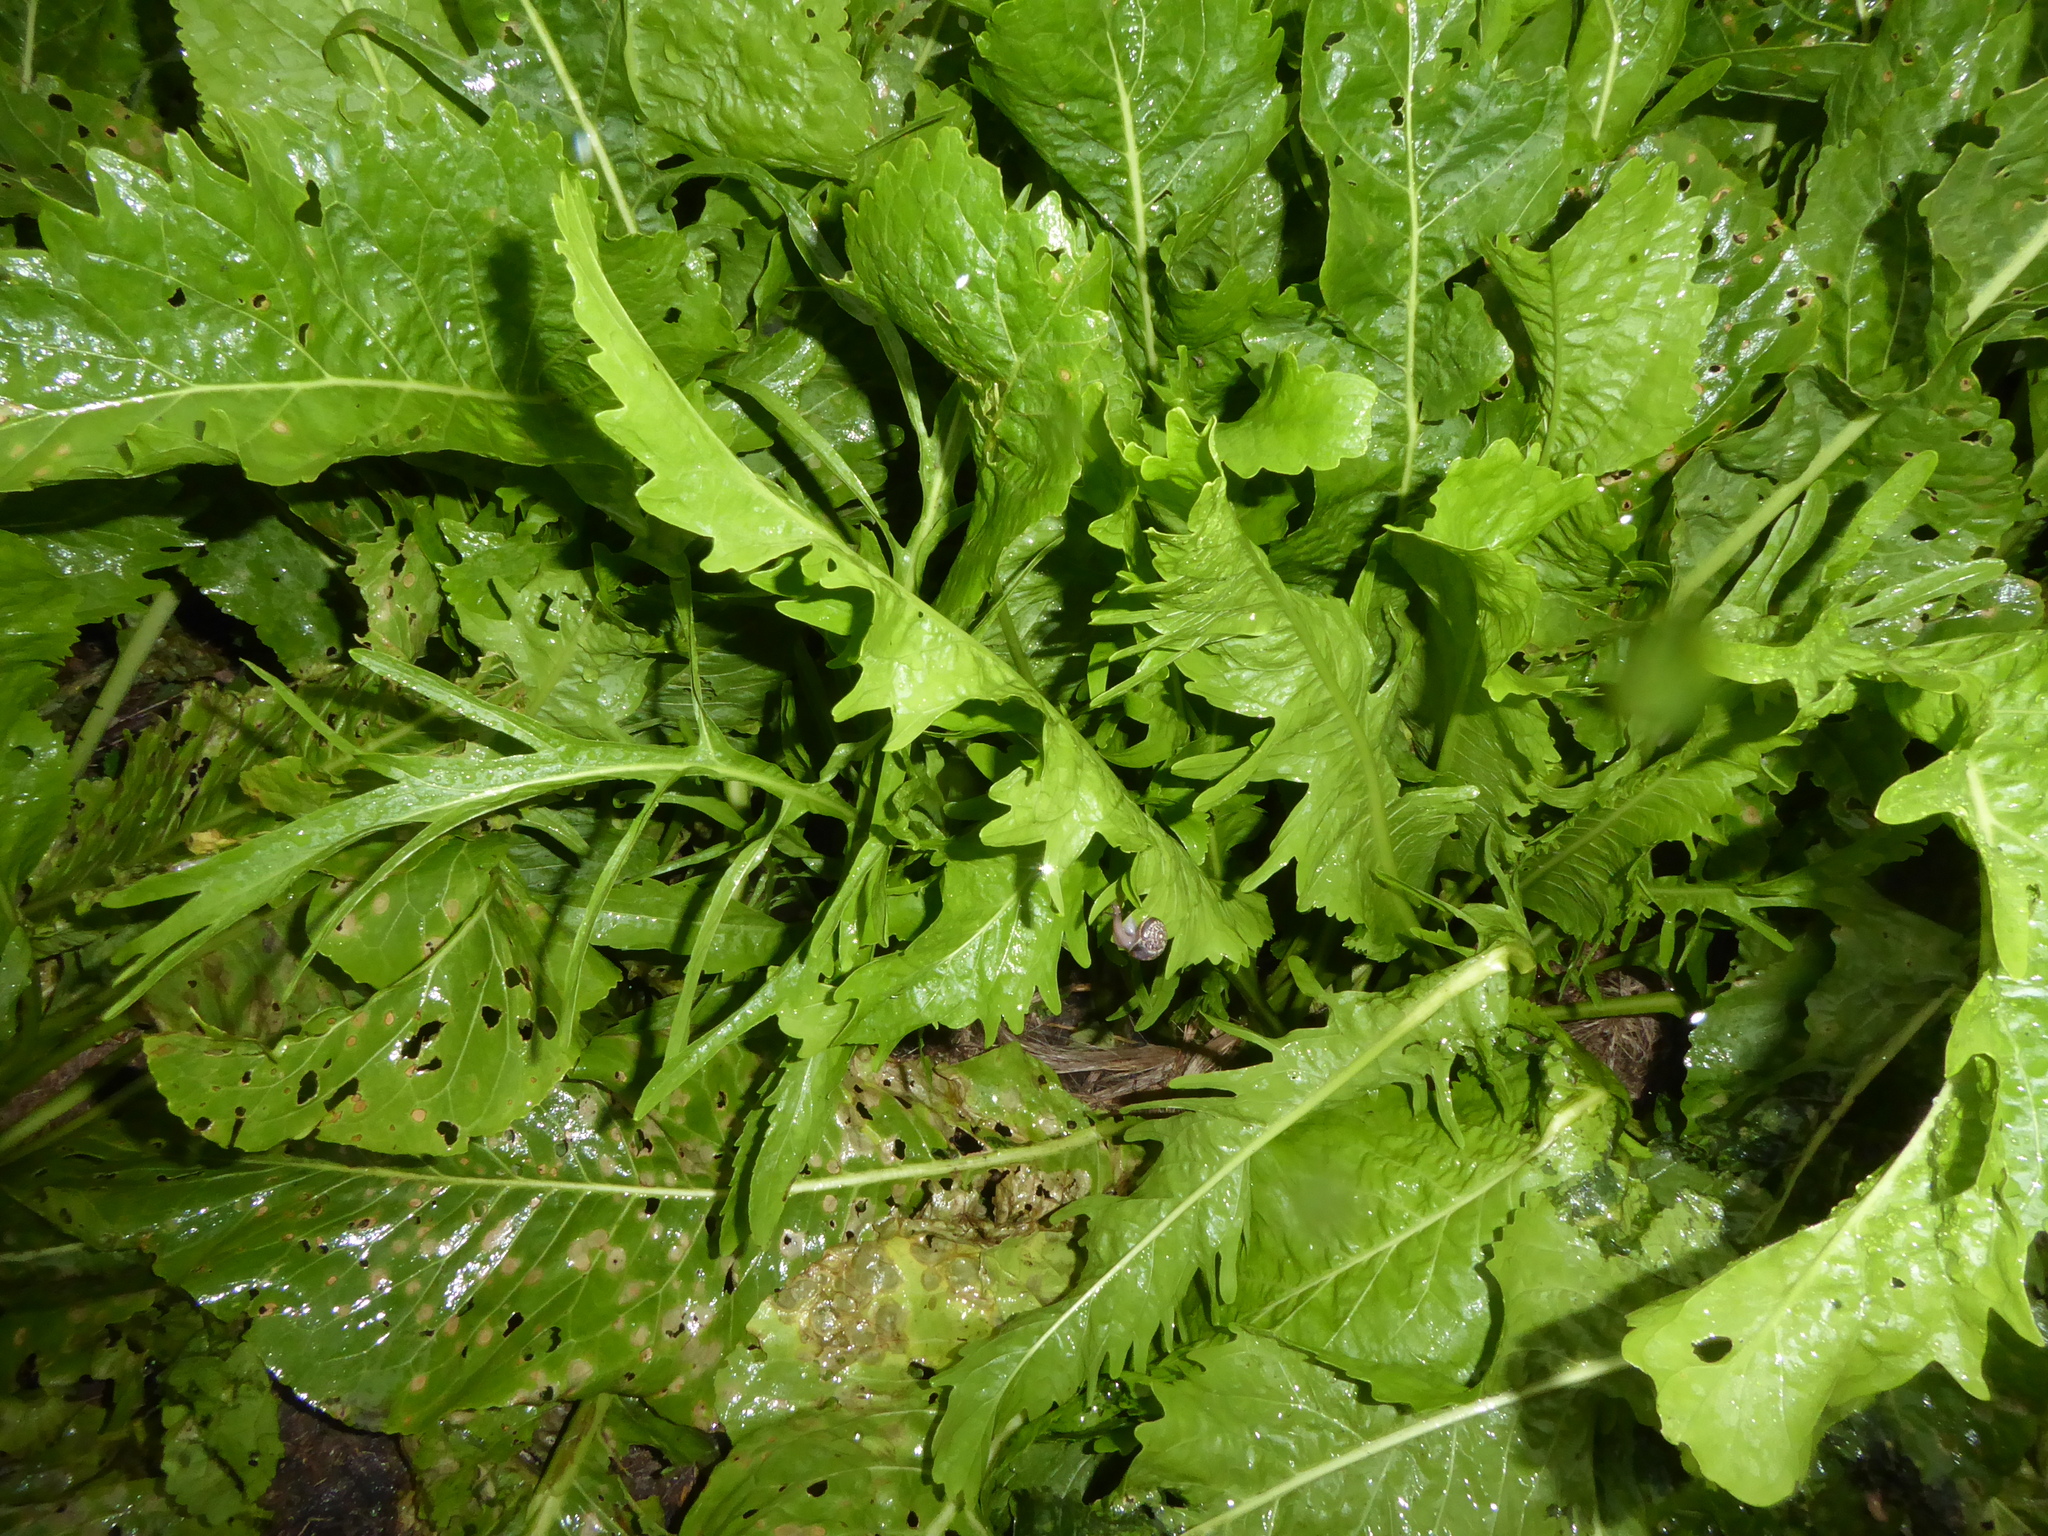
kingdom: Plantae
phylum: Tracheophyta
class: Magnoliopsida
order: Brassicales
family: Brassicaceae
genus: Armoracia
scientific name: Armoracia rusticana
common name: Horseradish
